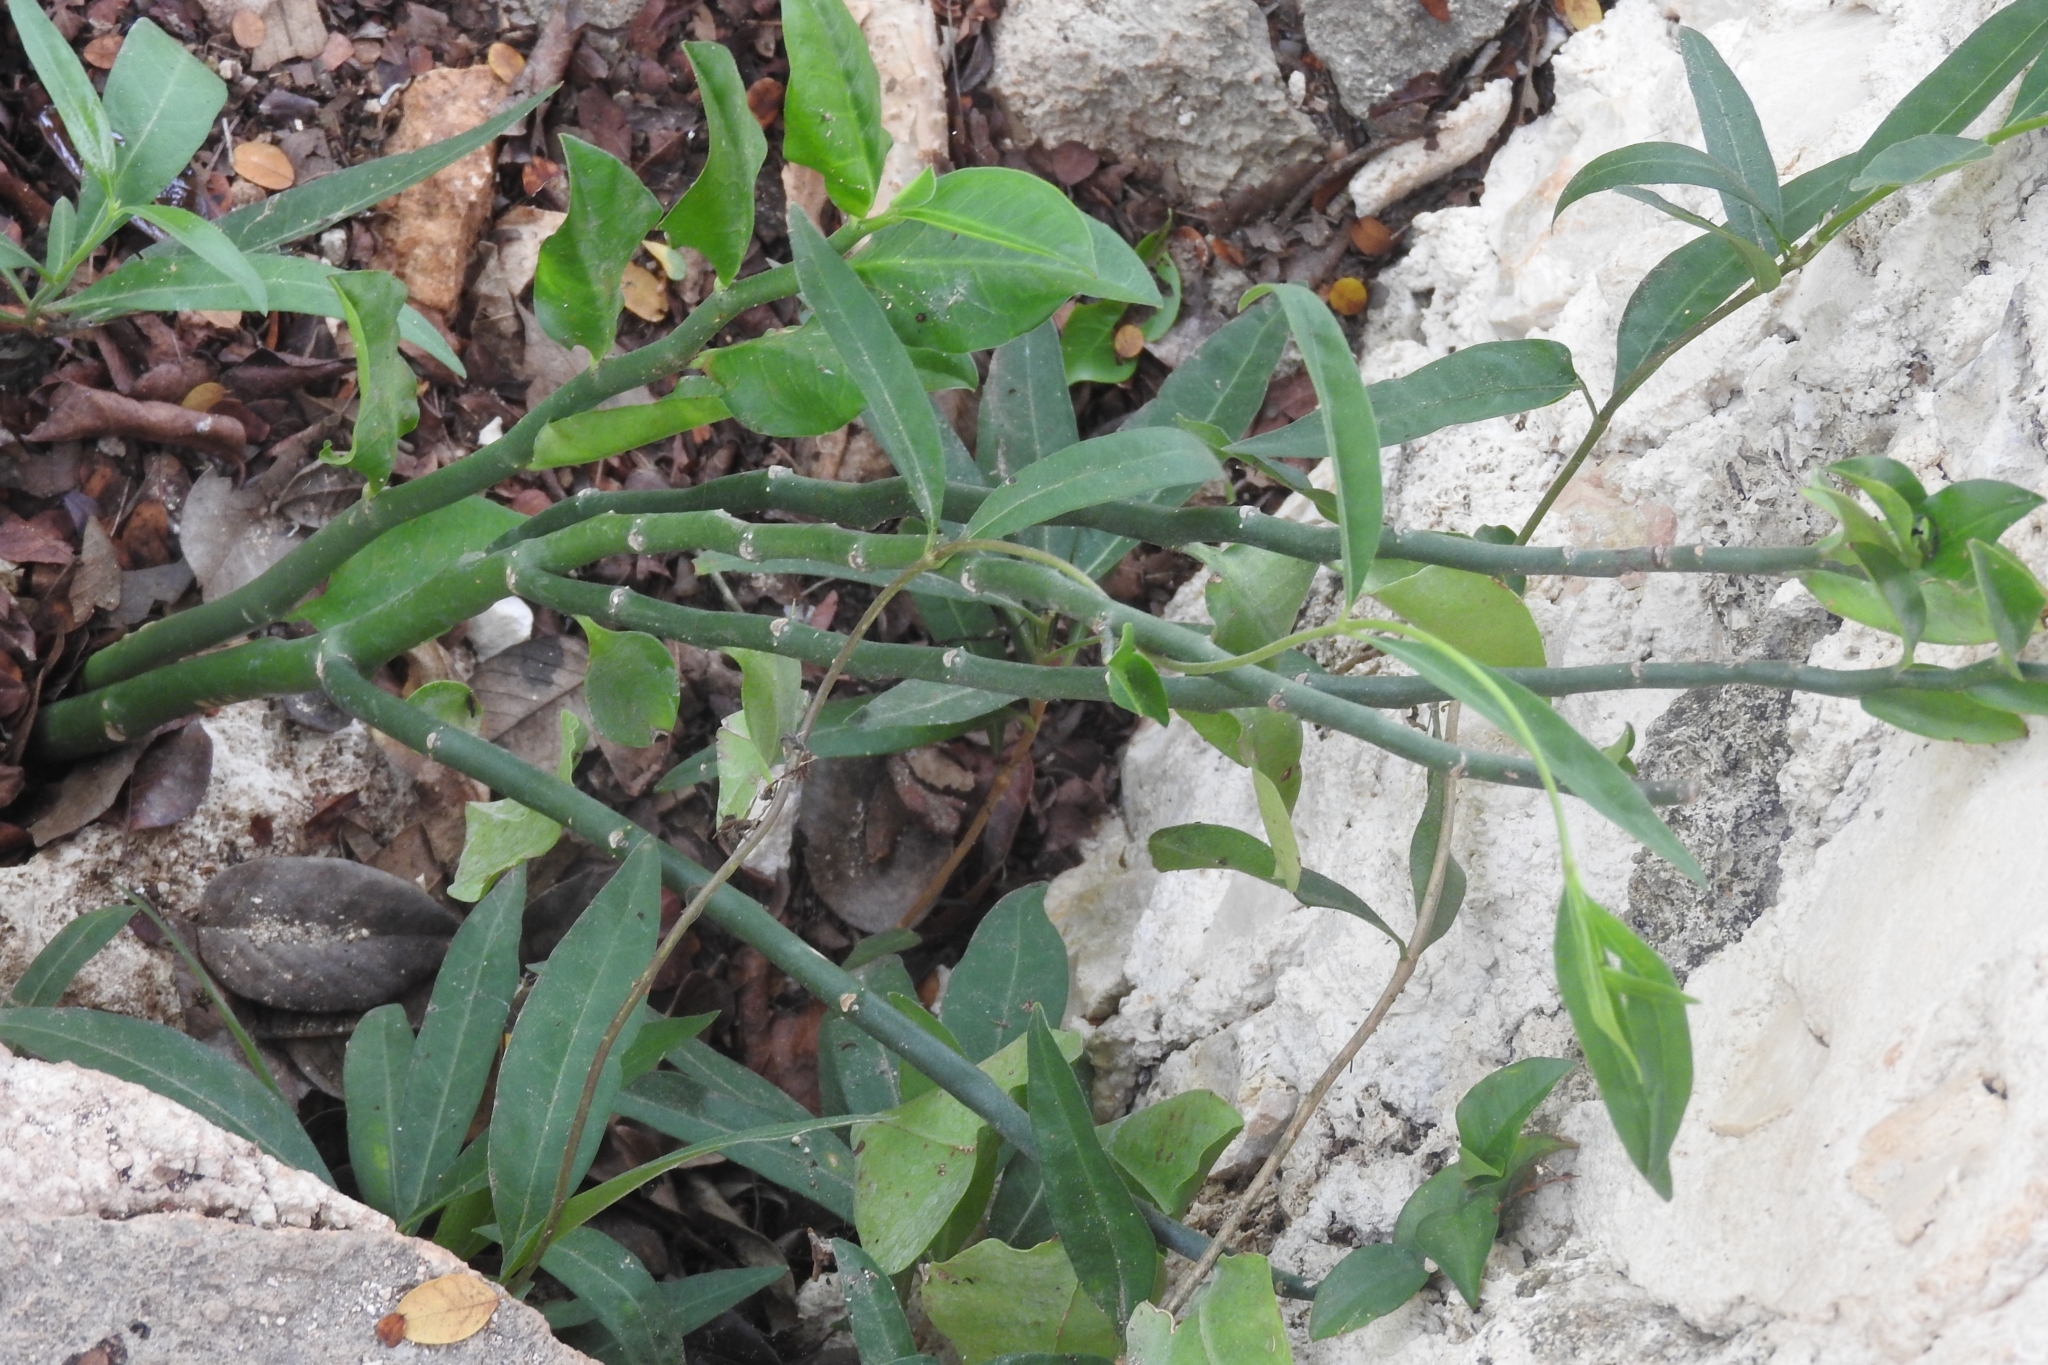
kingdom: Plantae
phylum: Tracheophyta
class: Magnoliopsida
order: Malpighiales
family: Euphorbiaceae
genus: Euphorbia
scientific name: Euphorbia tithymaloides
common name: Slipperplant
